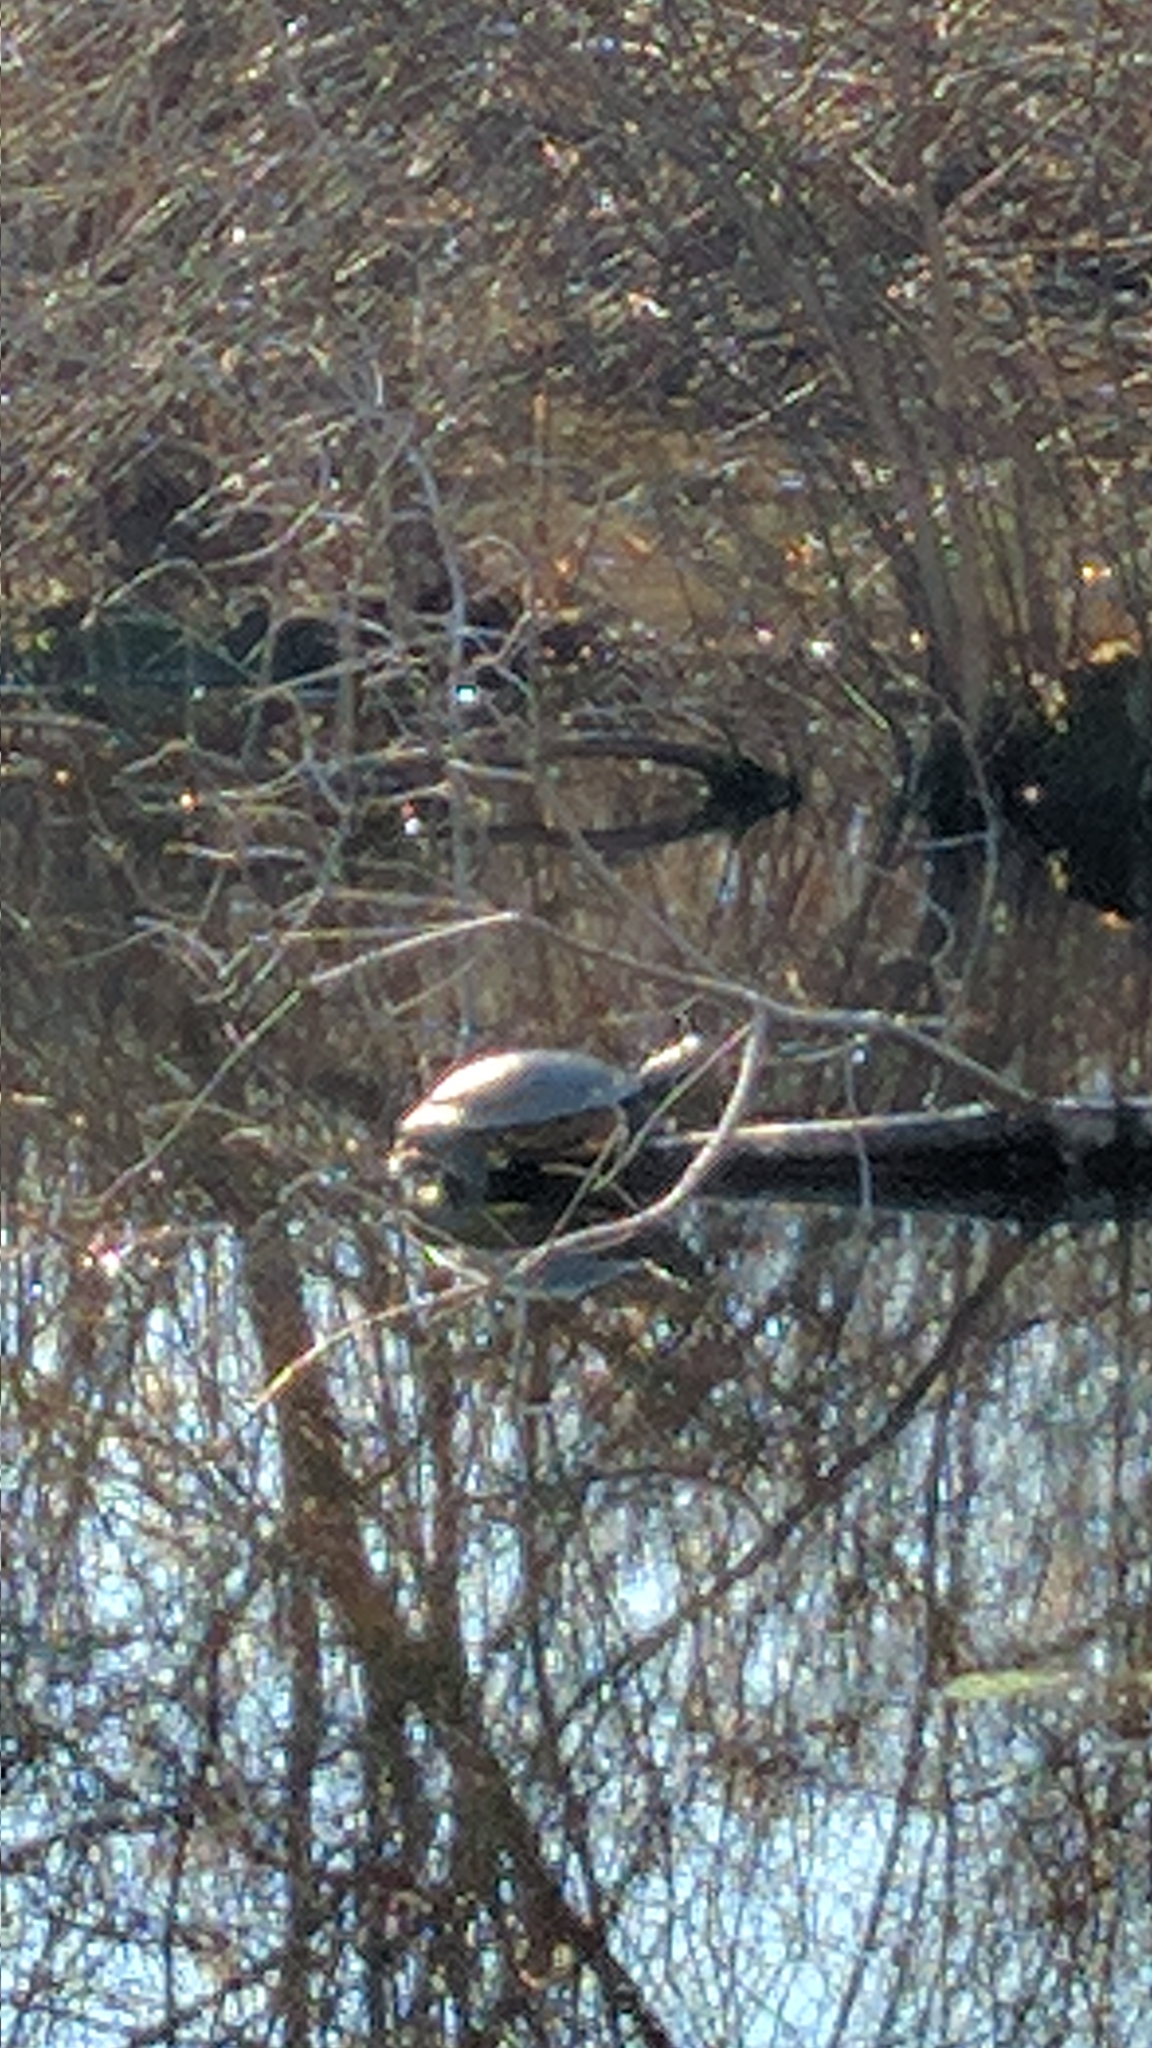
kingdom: Animalia
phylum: Chordata
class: Testudines
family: Emydidae
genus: Trachemys
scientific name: Trachemys scripta
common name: Slider
